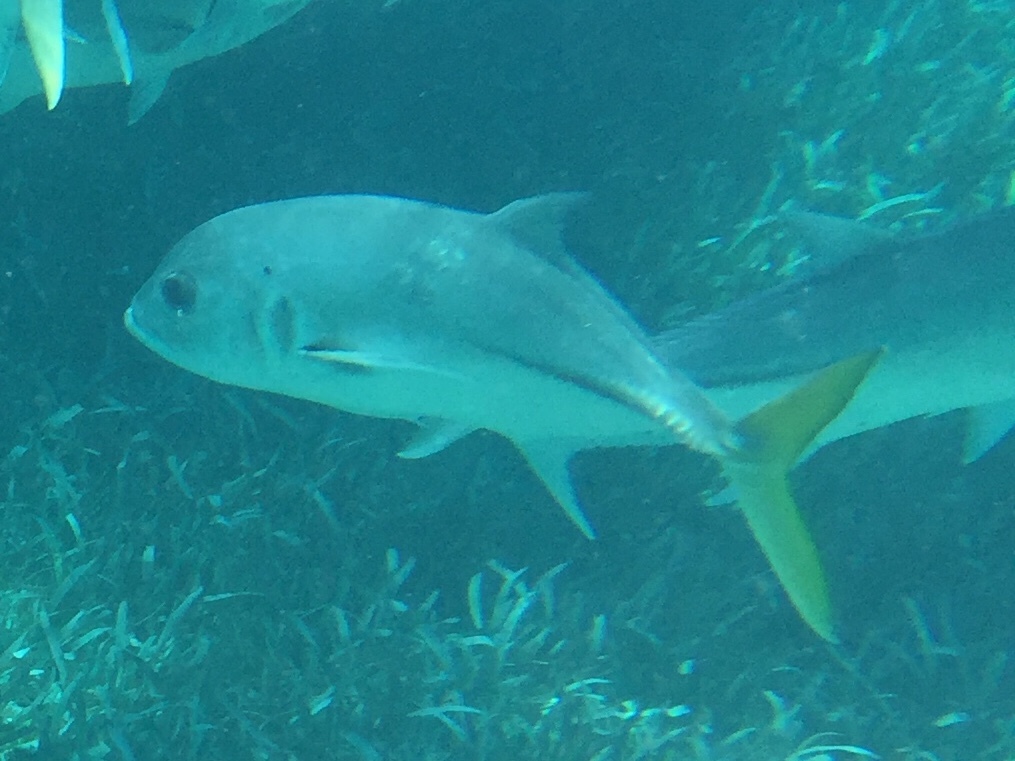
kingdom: Animalia
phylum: Chordata
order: Perciformes
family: Carangidae
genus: Caranx
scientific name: Caranx latus
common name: Horse eye jack
